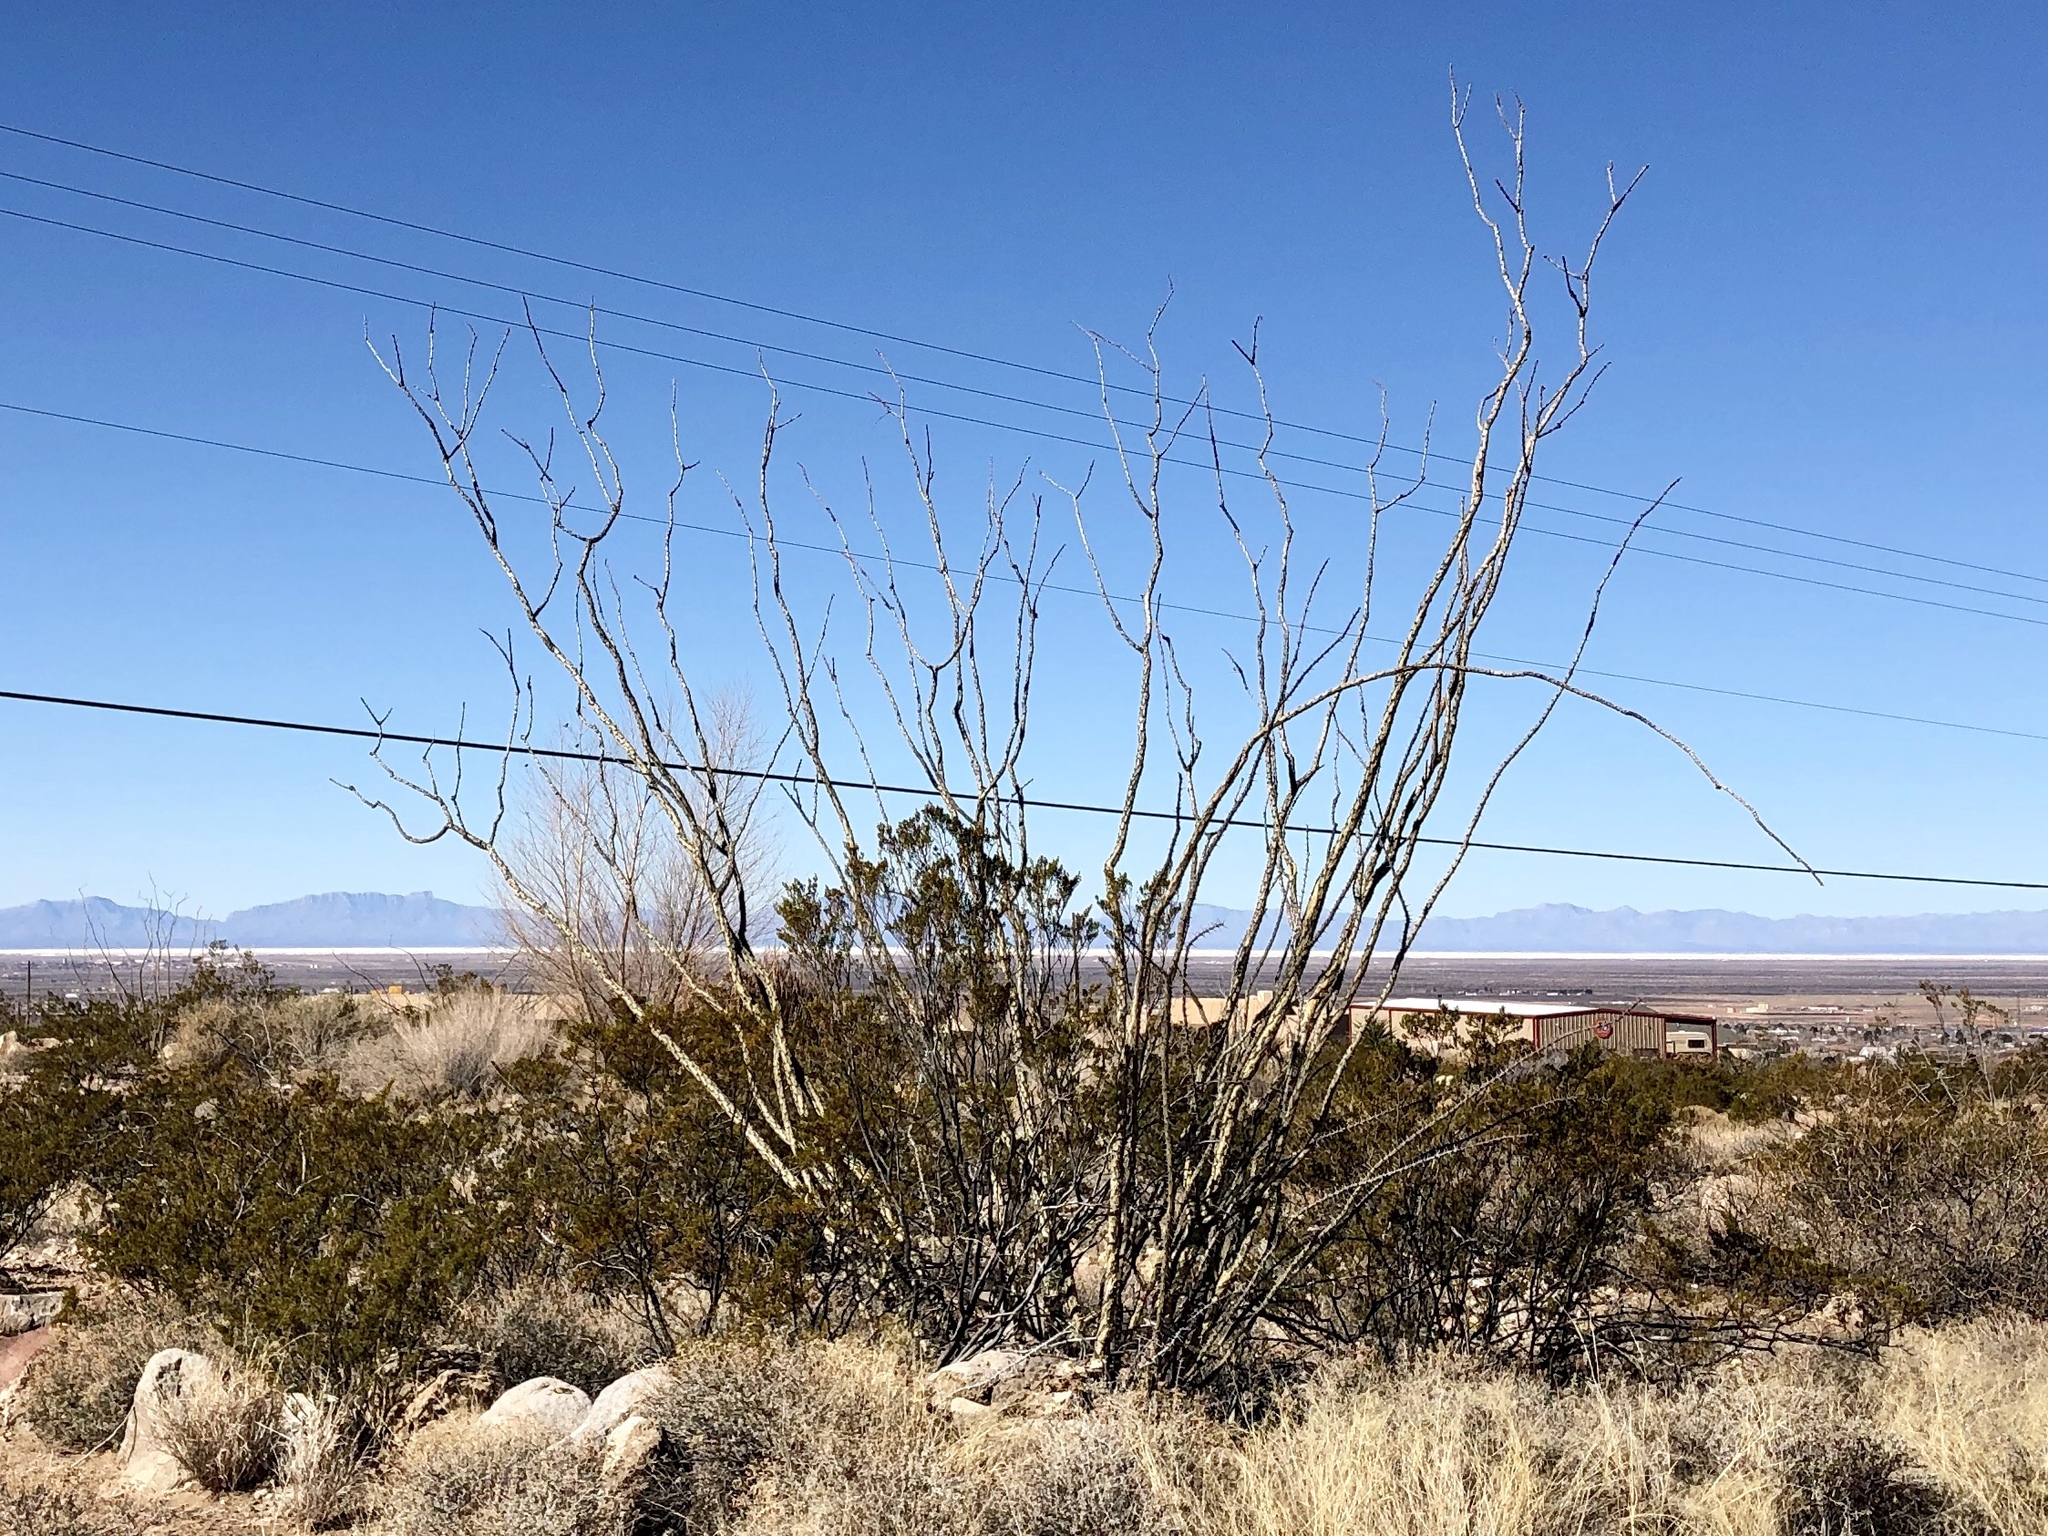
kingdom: Plantae
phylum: Tracheophyta
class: Magnoliopsida
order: Ericales
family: Fouquieriaceae
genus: Fouquieria
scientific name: Fouquieria splendens
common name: Vine-cactus
